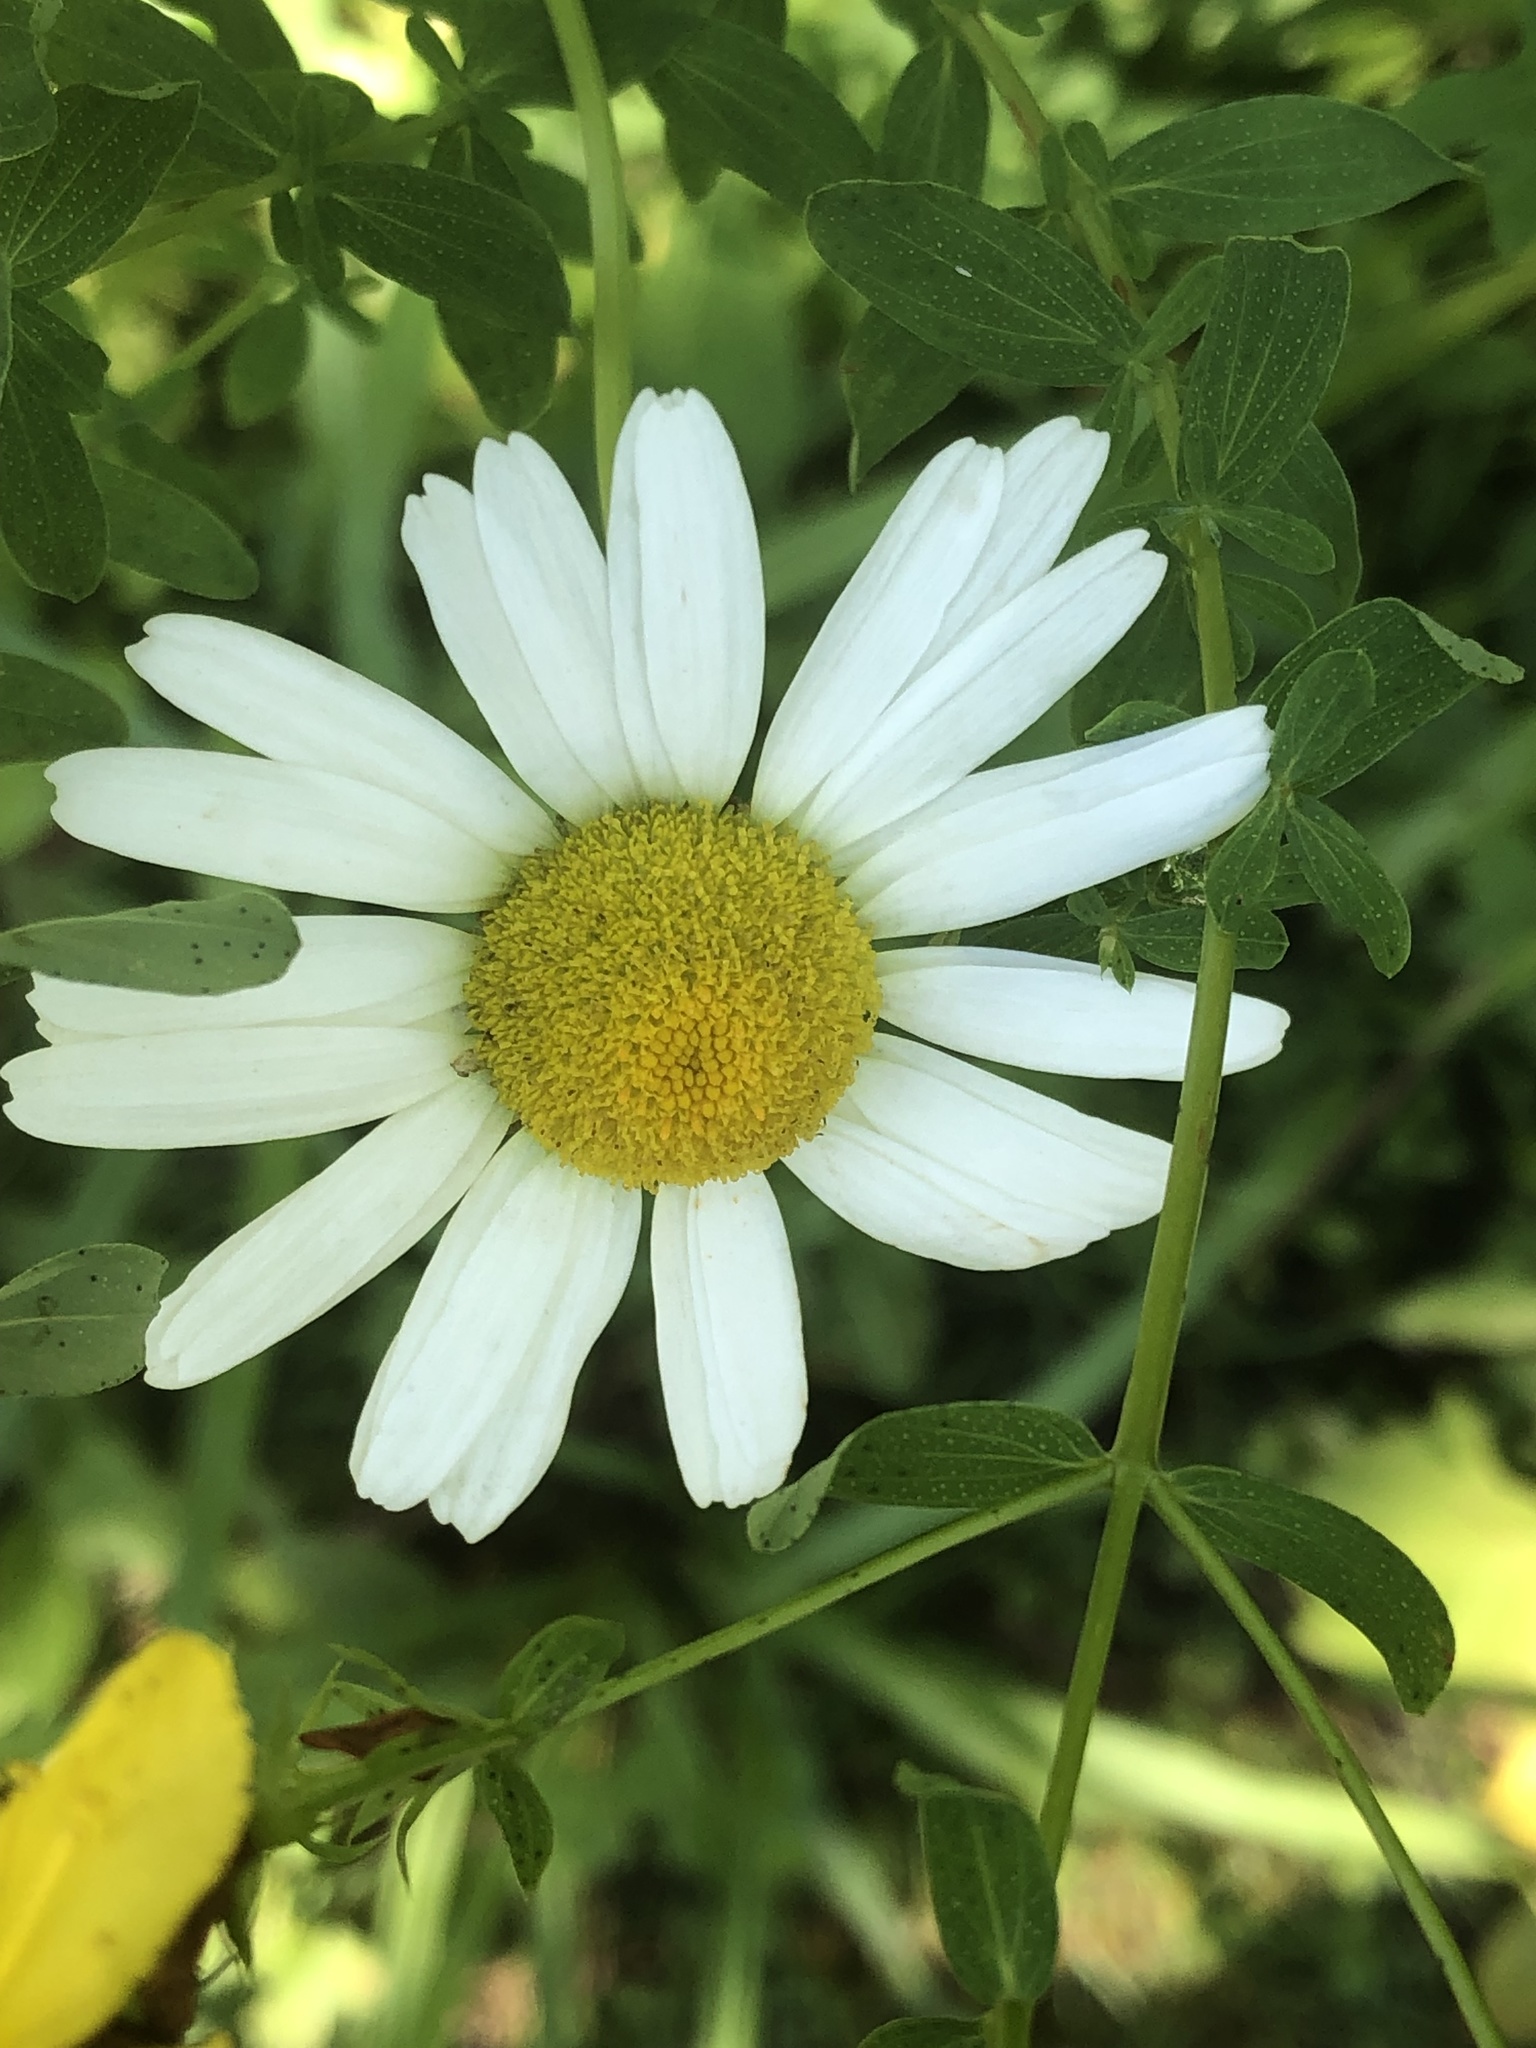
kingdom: Plantae
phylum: Tracheophyta
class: Magnoliopsida
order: Asterales
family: Asteraceae
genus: Leucanthemum
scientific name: Leucanthemum vulgare
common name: Oxeye daisy
